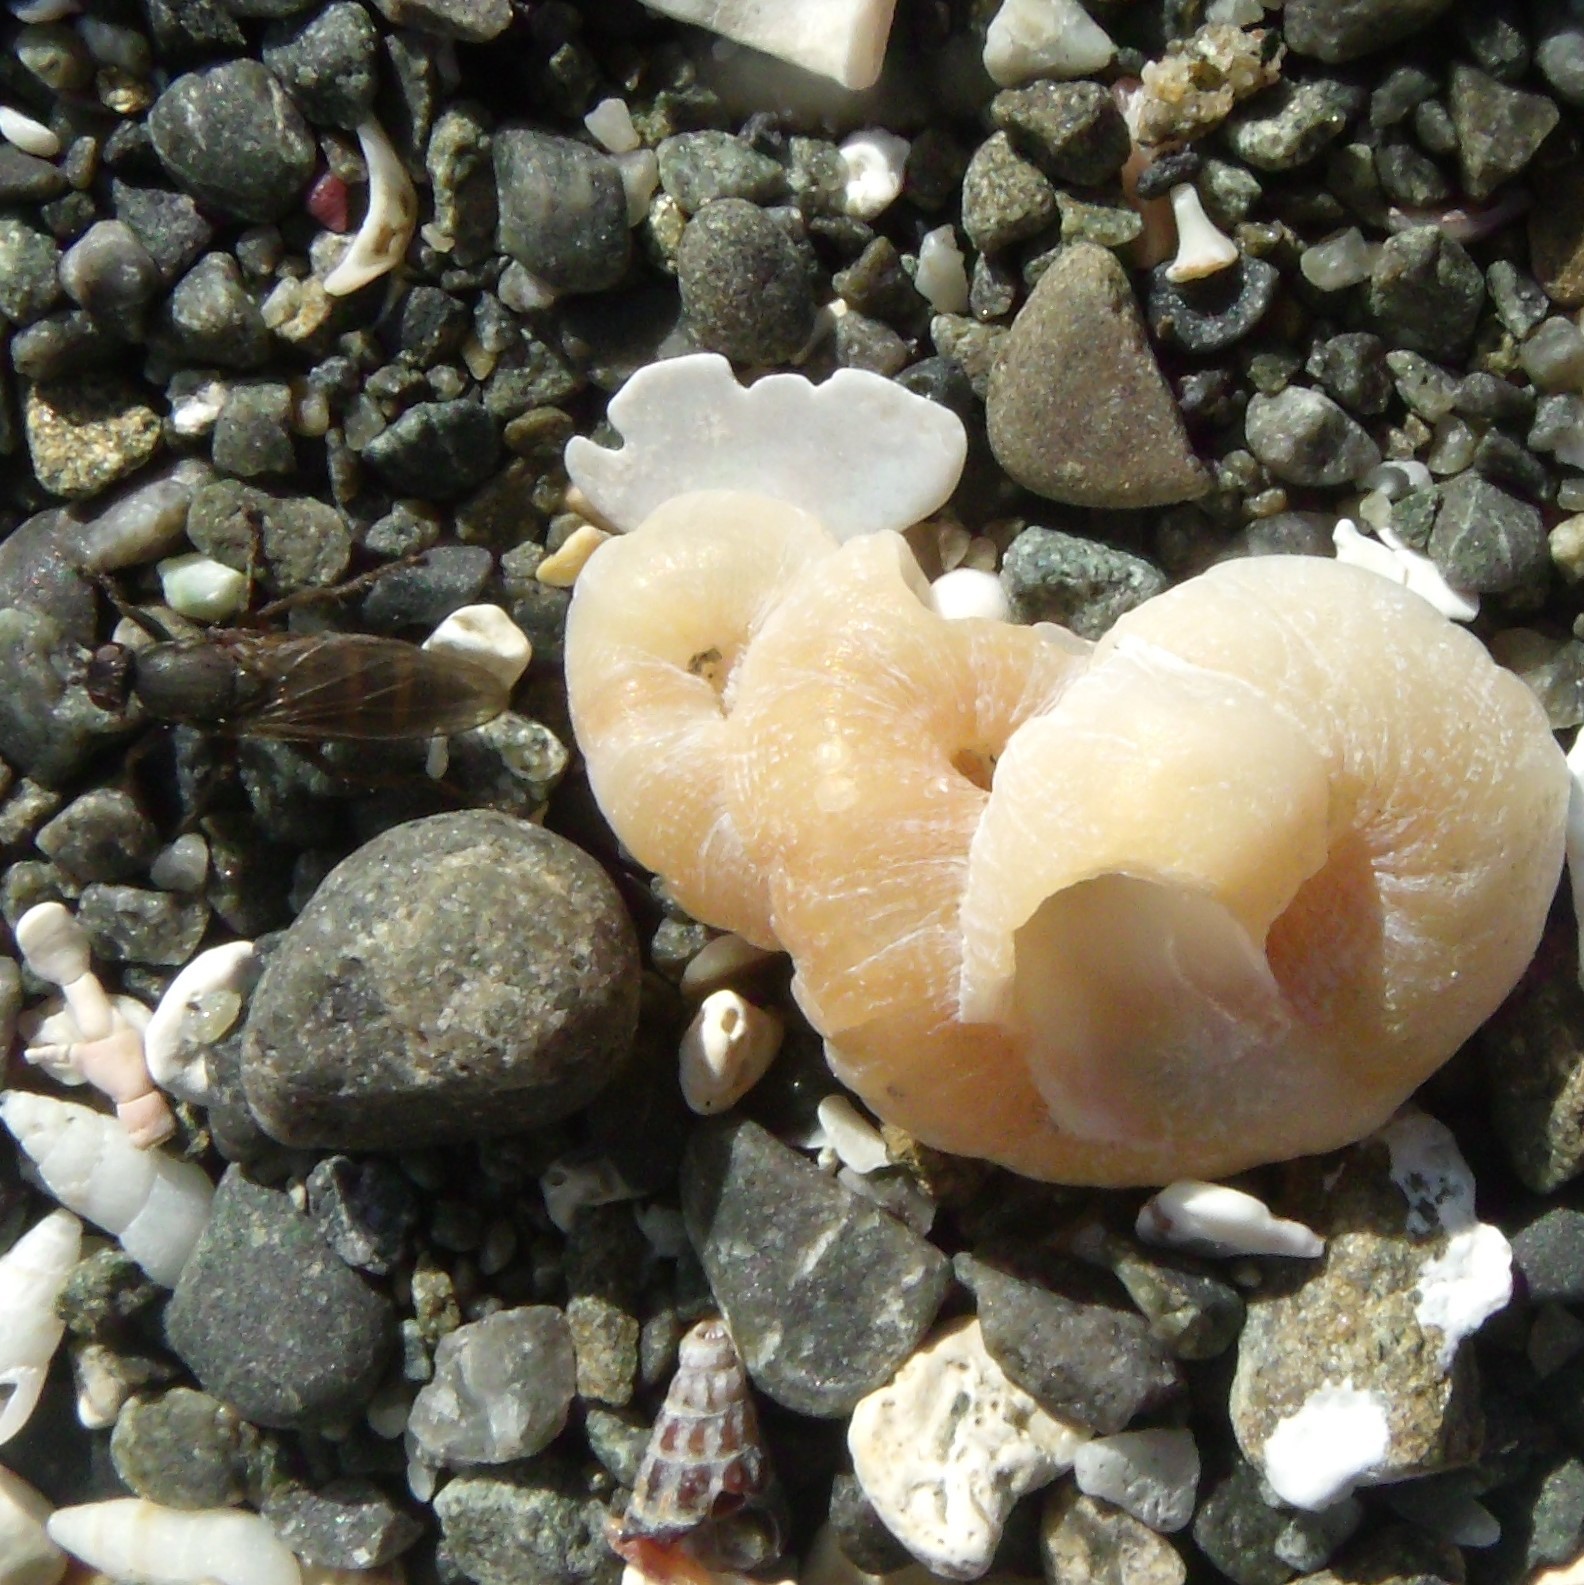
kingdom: Animalia
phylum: Mollusca
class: Gastropoda
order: Littorinimorpha
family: Vermetidae
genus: Thylacodes
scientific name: Thylacodes zelandicus
